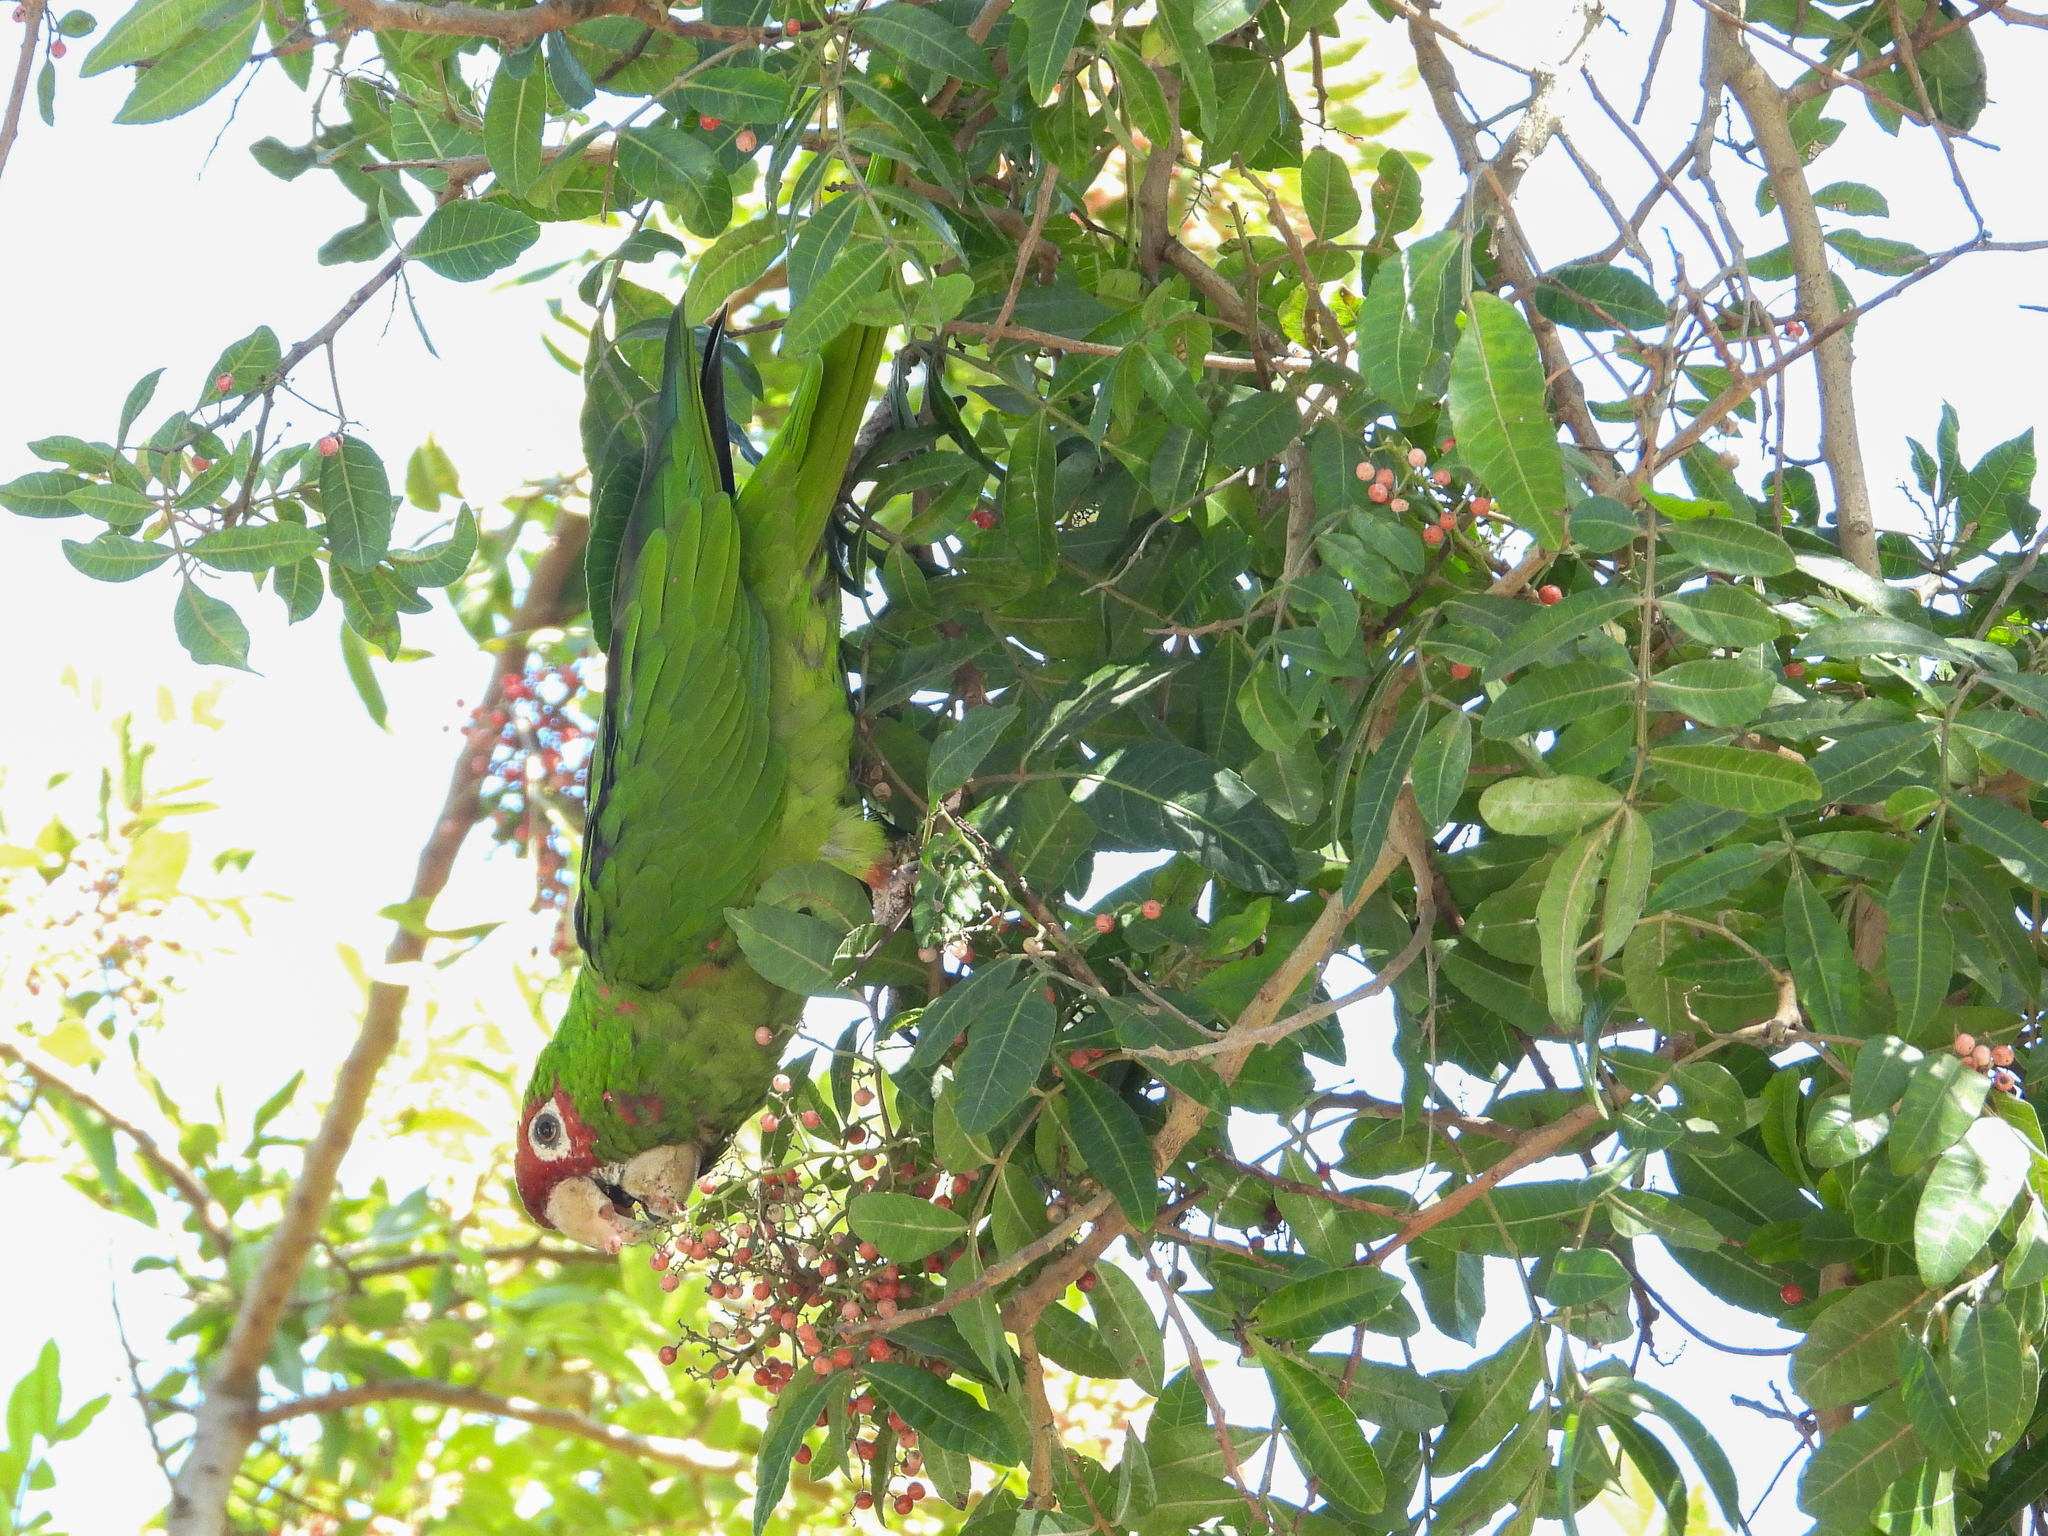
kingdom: Animalia
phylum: Chordata
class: Aves
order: Psittaciformes
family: Psittacidae
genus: Aratinga
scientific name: Aratinga mitrata
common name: Mitred parakeet
